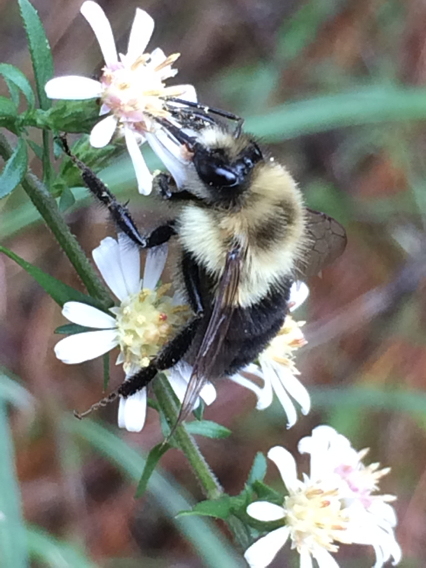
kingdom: Animalia
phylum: Arthropoda
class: Insecta
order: Hymenoptera
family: Apidae
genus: Bombus
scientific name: Bombus impatiens
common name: Common eastern bumble bee
